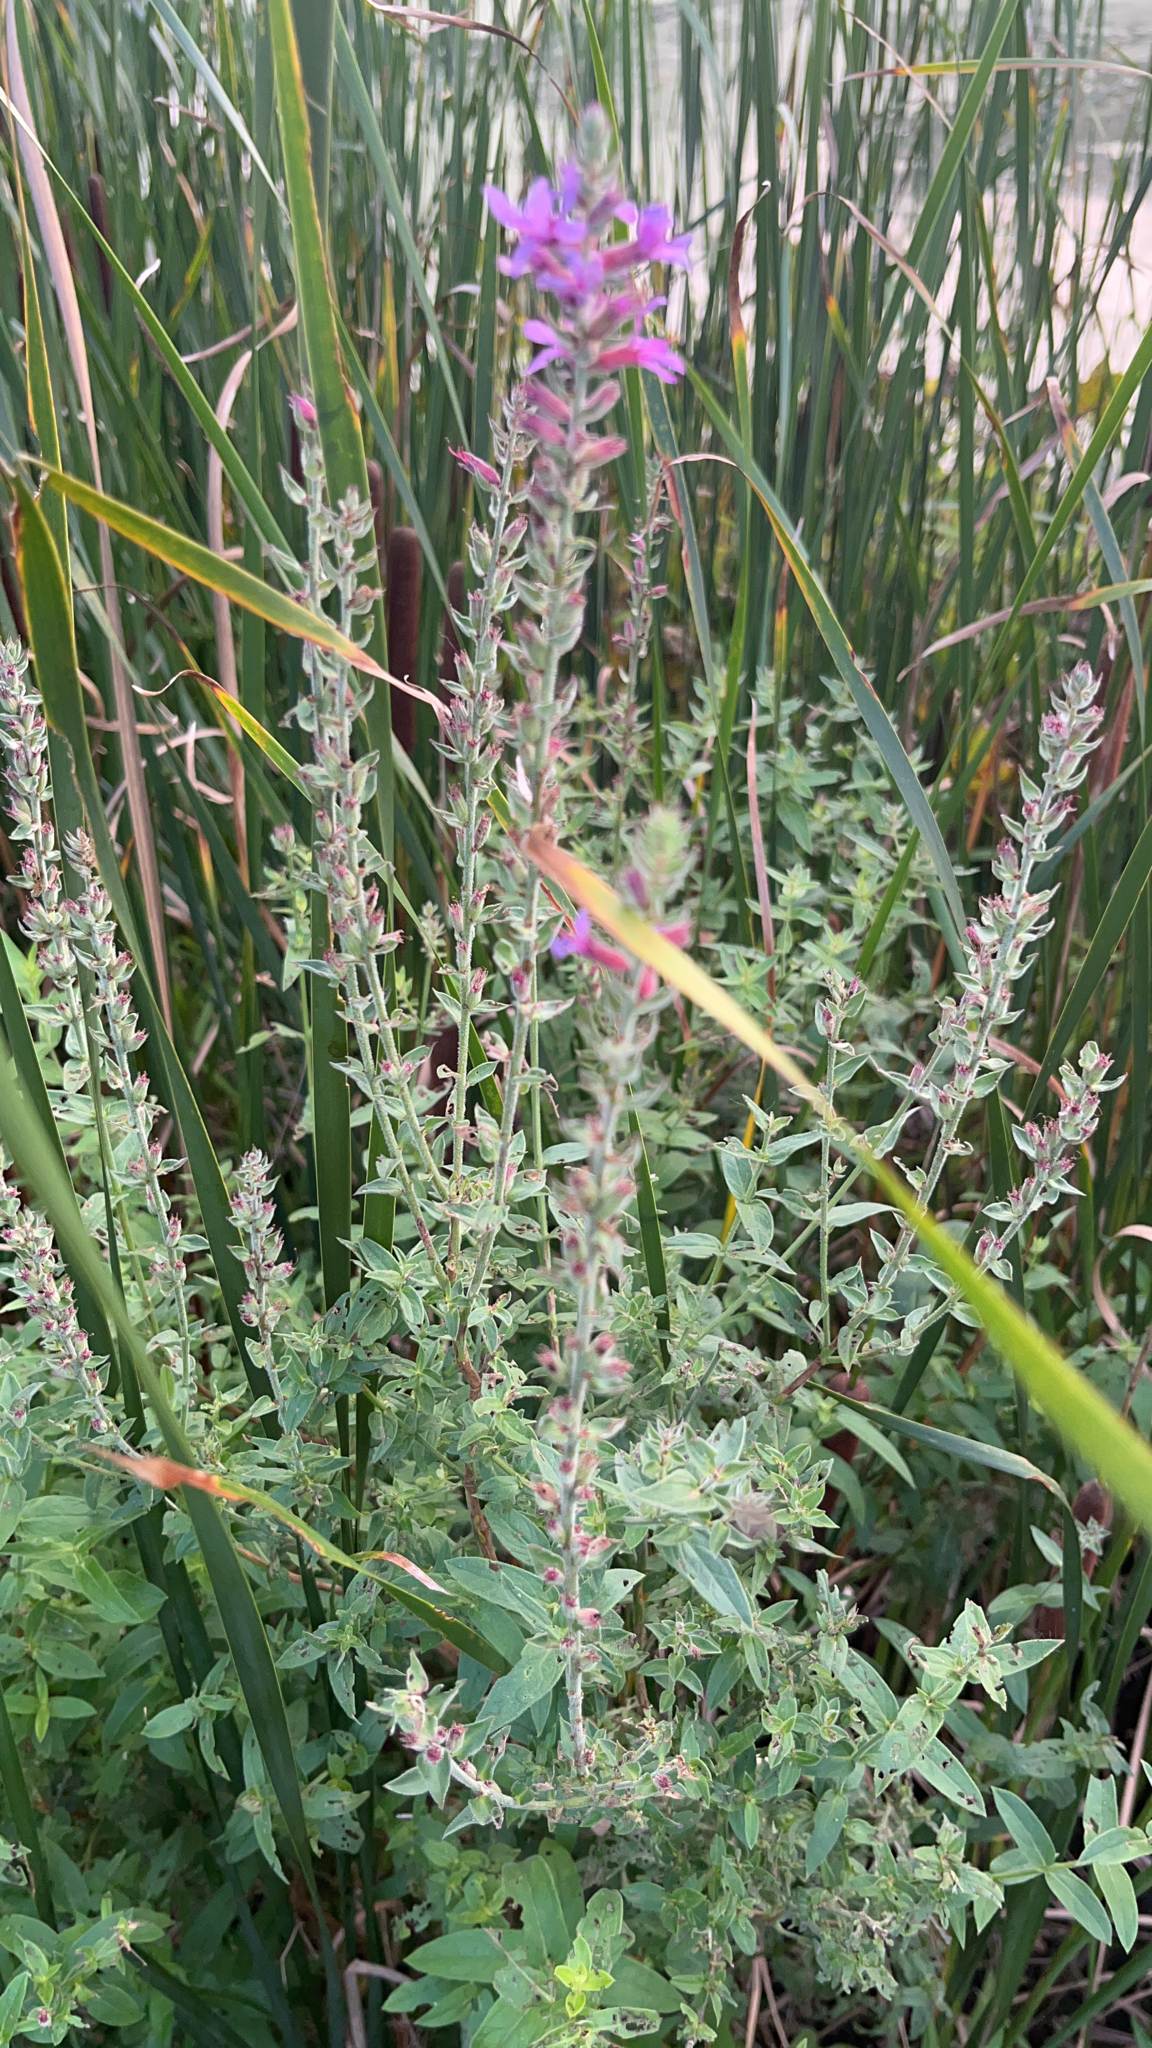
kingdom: Plantae
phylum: Tracheophyta
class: Magnoliopsida
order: Myrtales
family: Lythraceae
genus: Lythrum
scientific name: Lythrum salicaria
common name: Purple loosestrife
